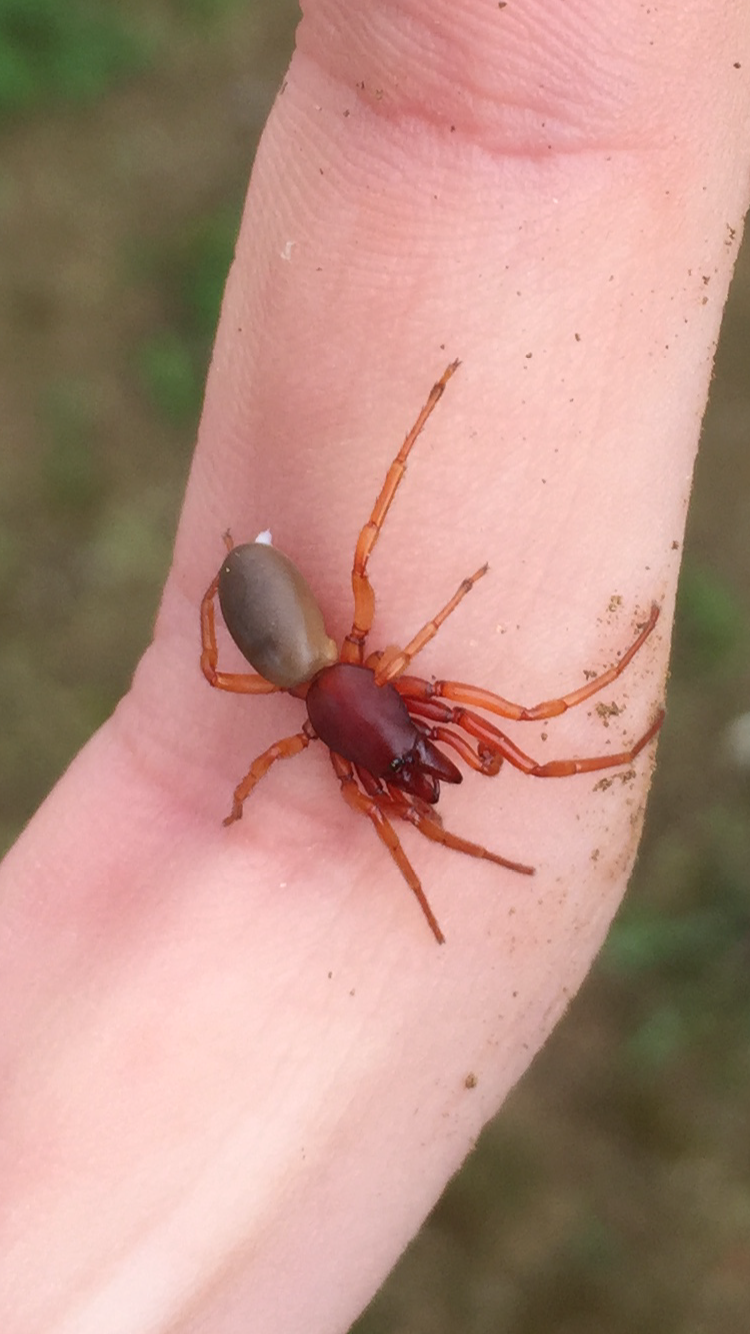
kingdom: Animalia
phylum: Arthropoda
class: Arachnida
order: Araneae
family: Dysderidae
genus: Dysdera
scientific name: Dysdera crocata
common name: Woodlouse spider
